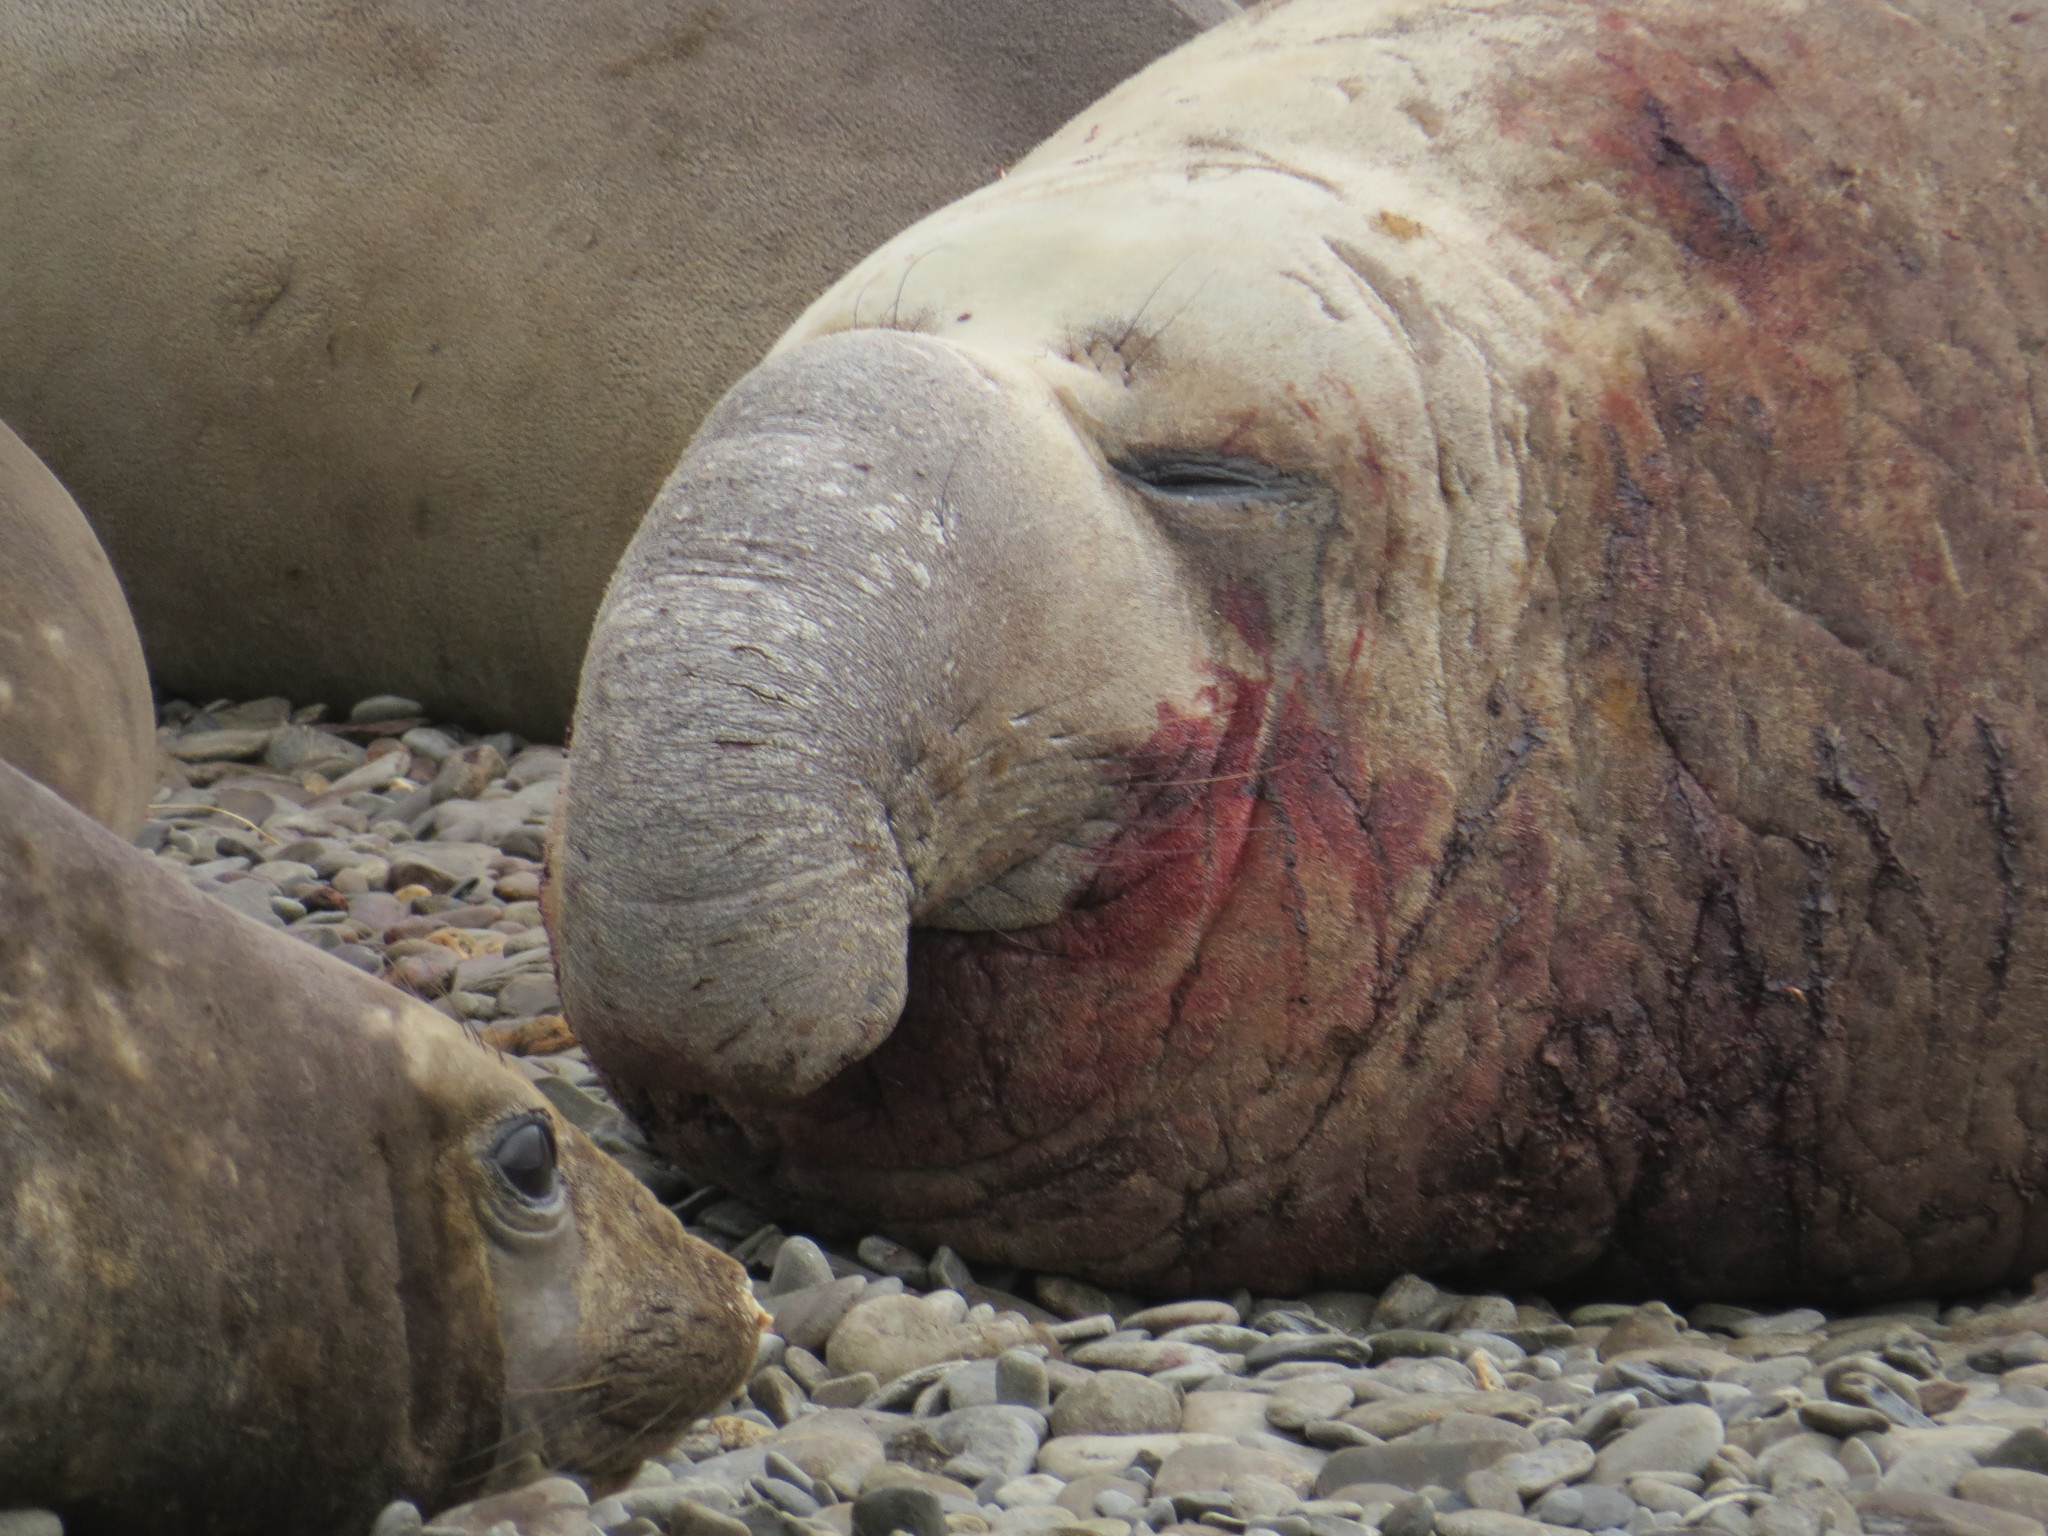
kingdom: Animalia
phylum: Chordata
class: Mammalia
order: Carnivora
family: Phocidae
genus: Mirounga
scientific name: Mirounga leonina
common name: Southern elephant seal
